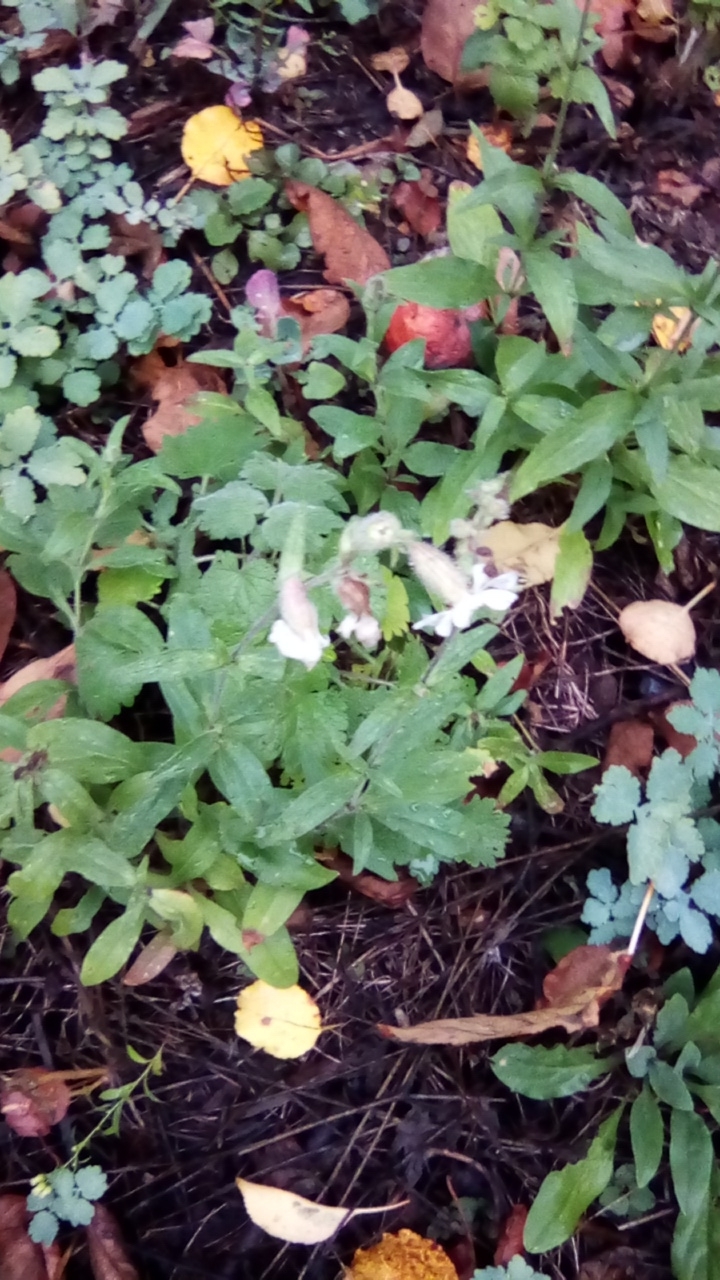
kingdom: Plantae
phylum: Tracheophyta
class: Magnoliopsida
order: Caryophyllales
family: Caryophyllaceae
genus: Silene
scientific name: Silene latifolia
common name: White campion
